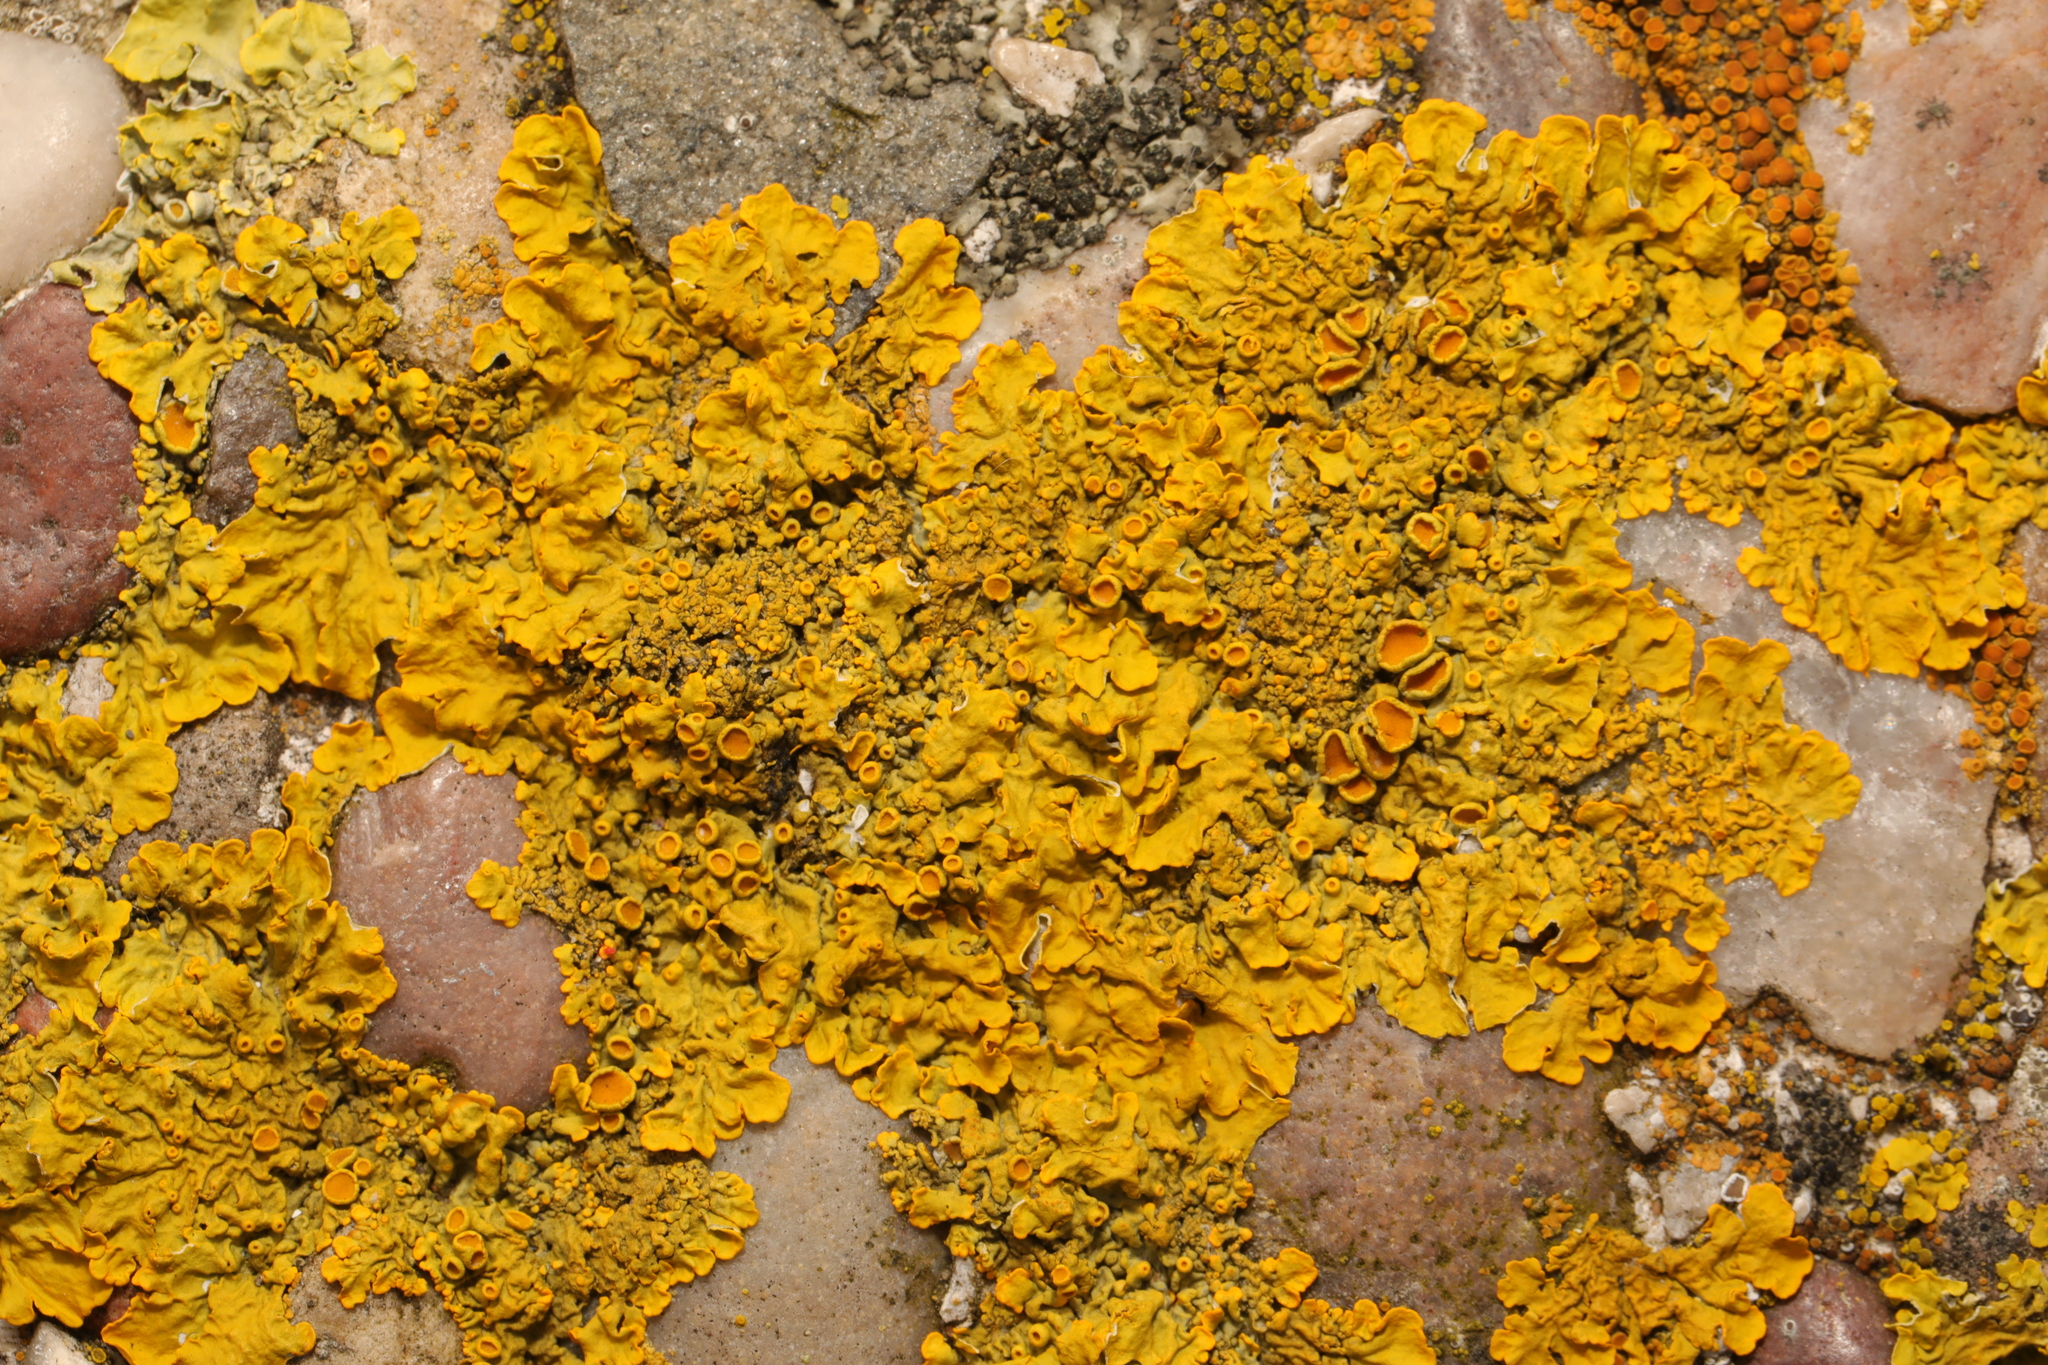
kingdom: Fungi
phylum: Ascomycota
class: Lecanoromycetes
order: Teloschistales
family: Teloschistaceae
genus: Xanthoria
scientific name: Xanthoria parietina
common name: Common orange lichen
